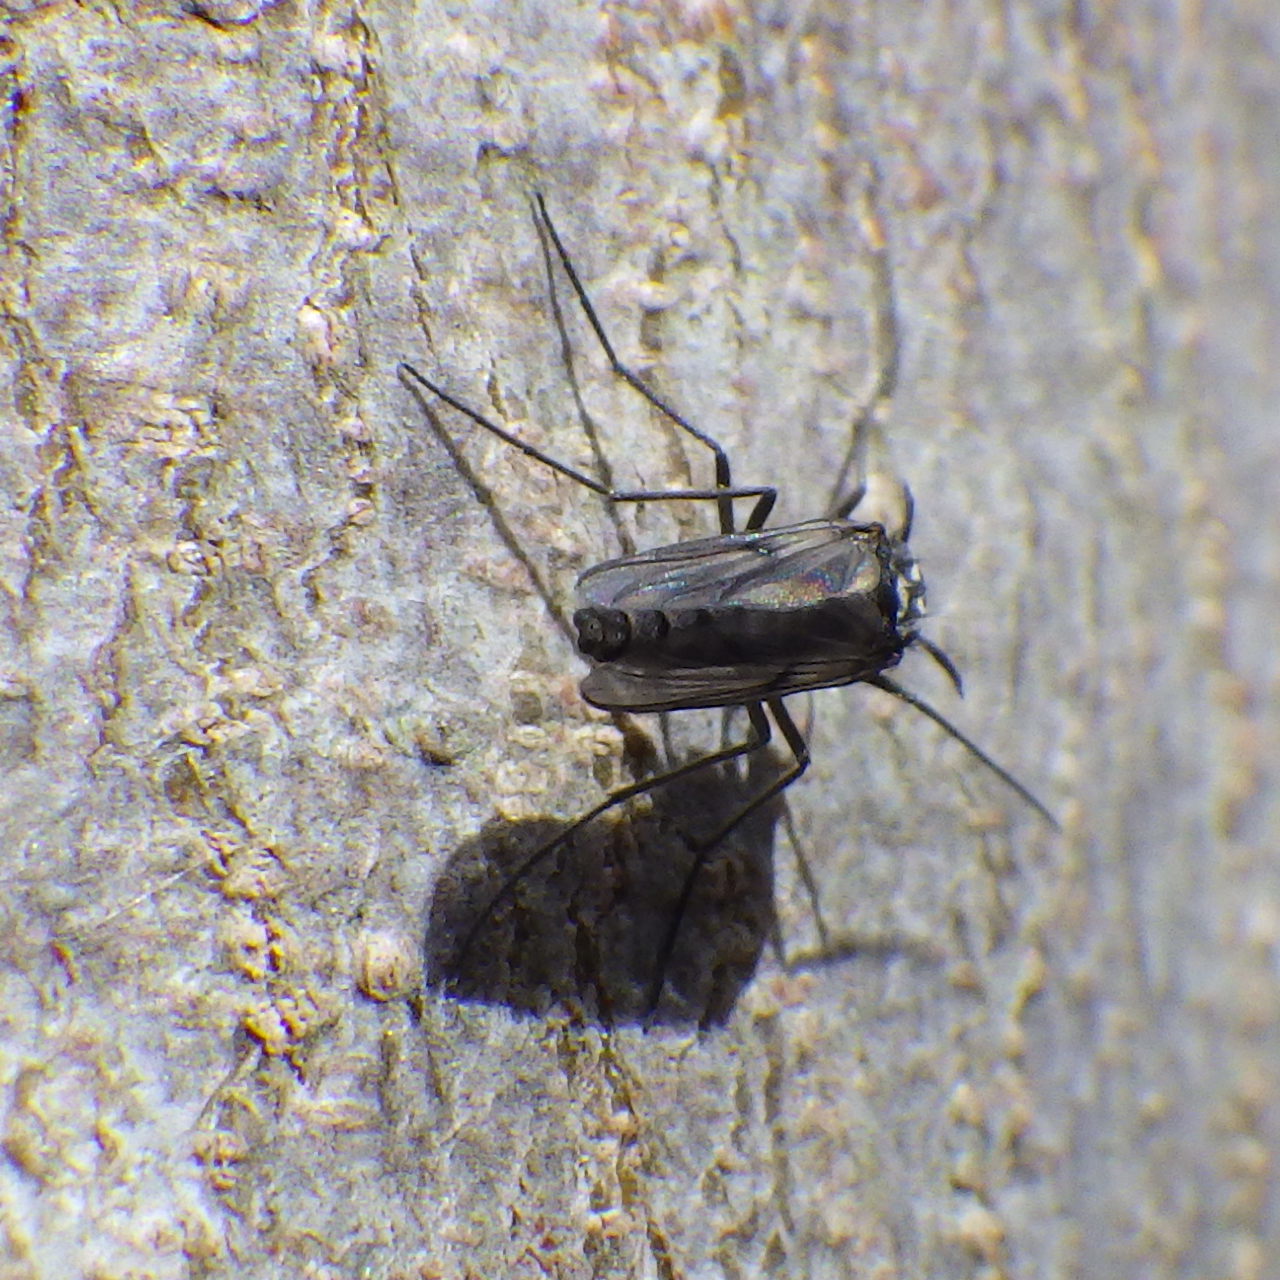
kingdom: Animalia
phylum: Arthropoda
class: Insecta
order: Diptera
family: Chironomidae
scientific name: Chironomidae
